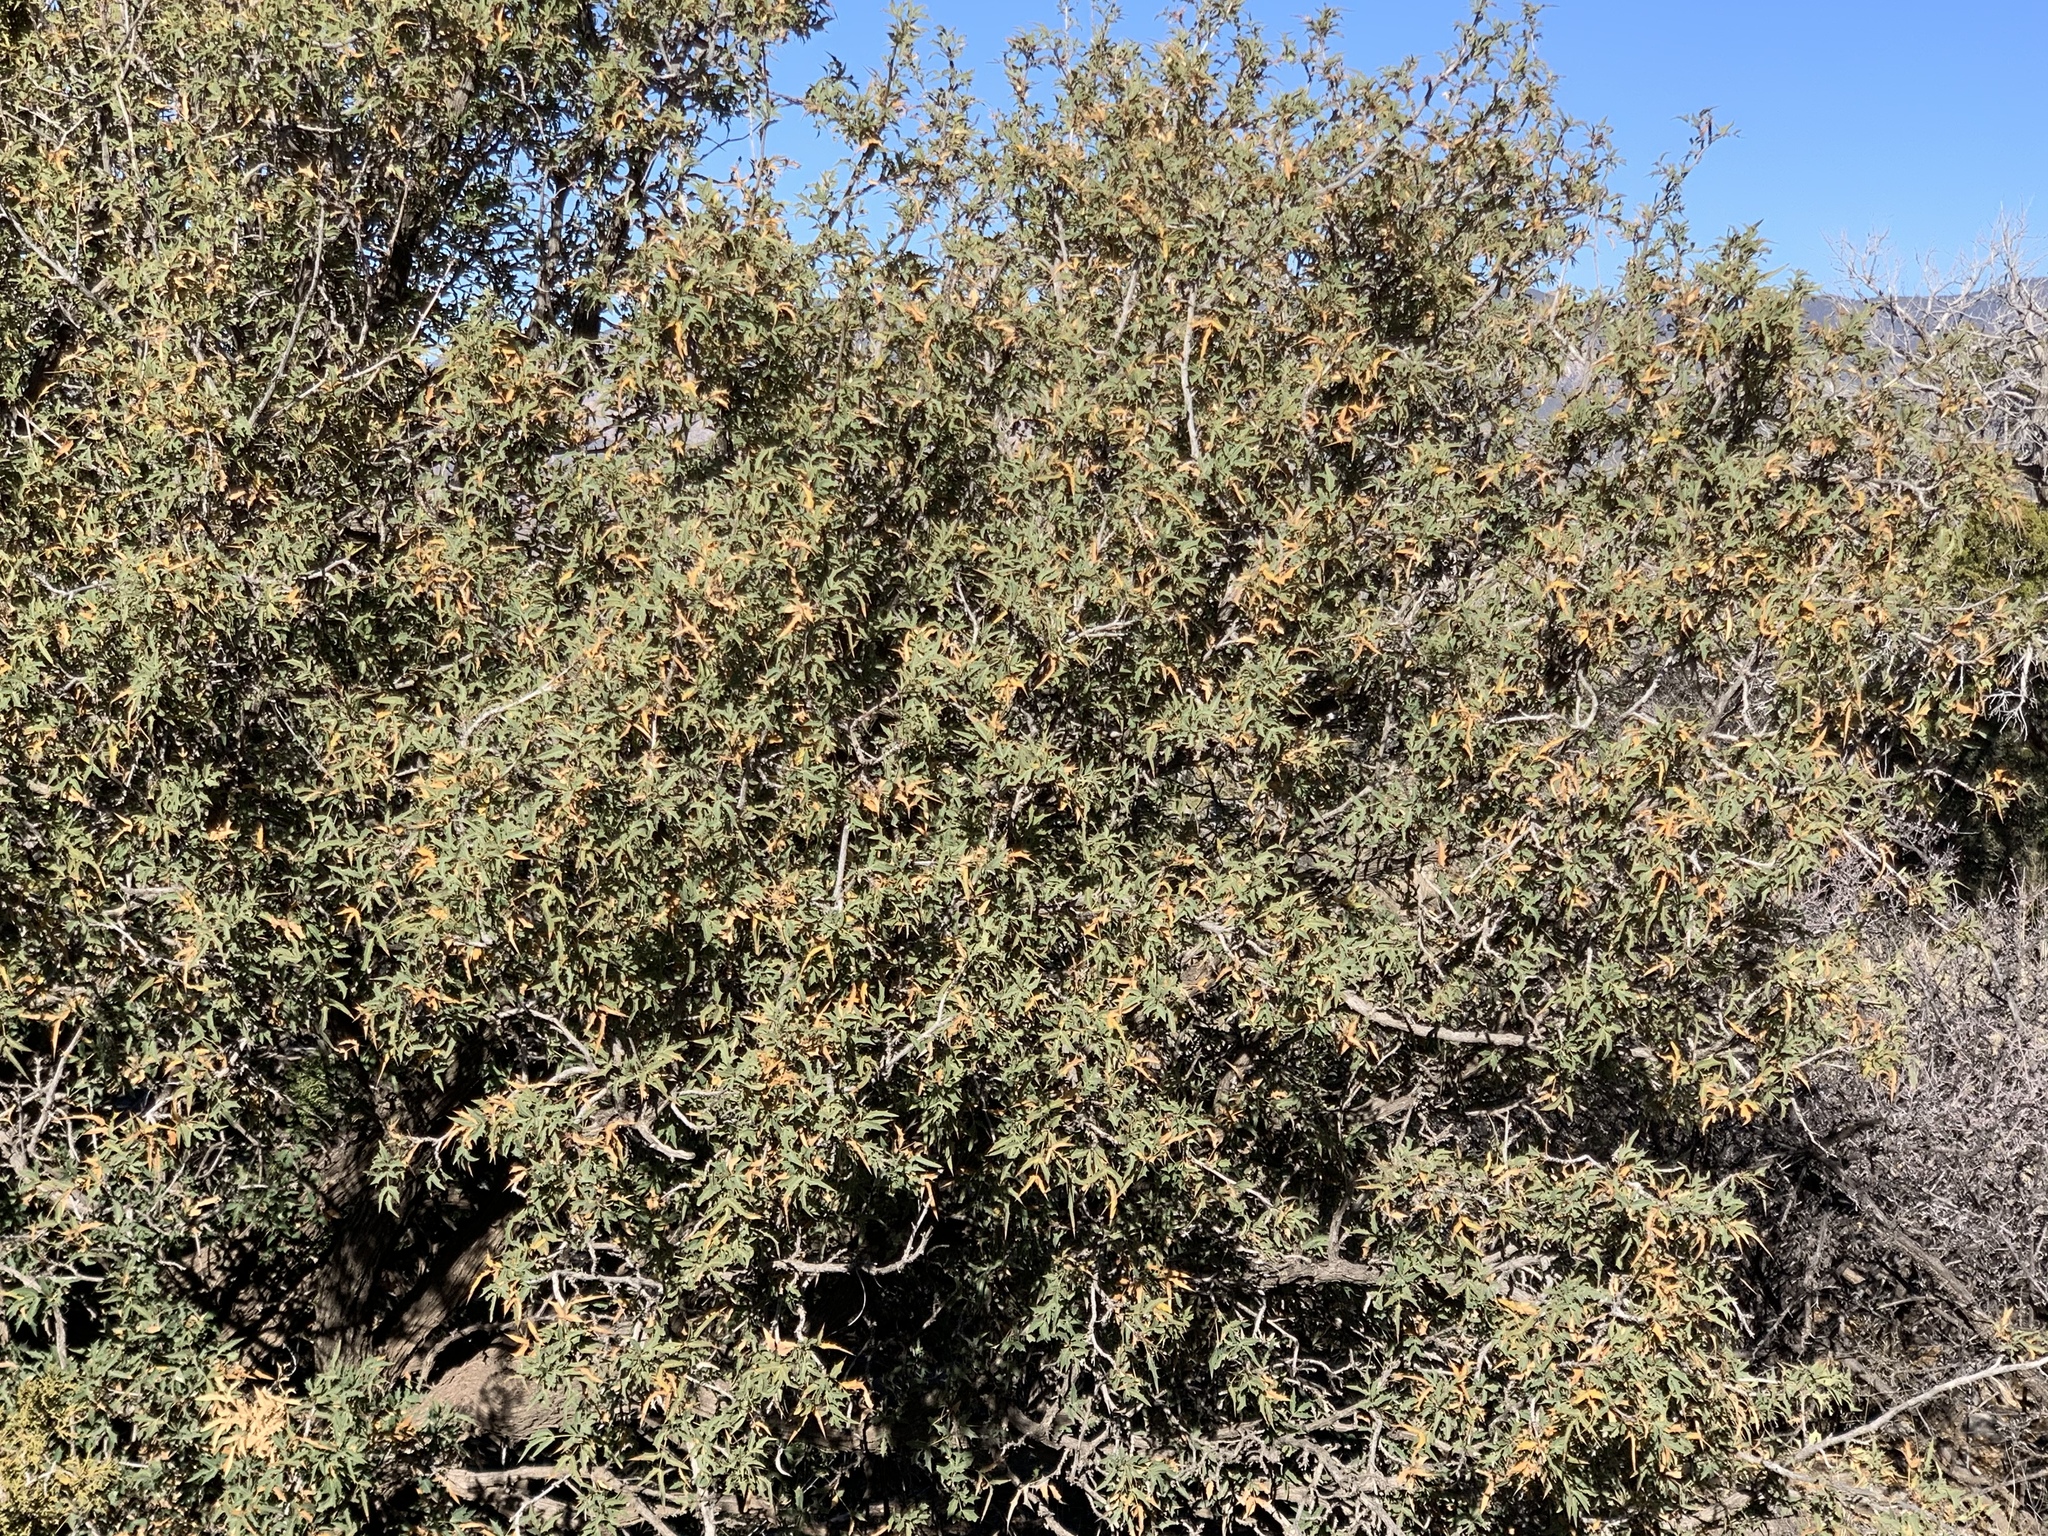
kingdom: Plantae
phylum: Tracheophyta
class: Magnoliopsida
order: Ranunculales
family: Berberidaceae
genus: Alloberberis
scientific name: Alloberberis haematocarpa
